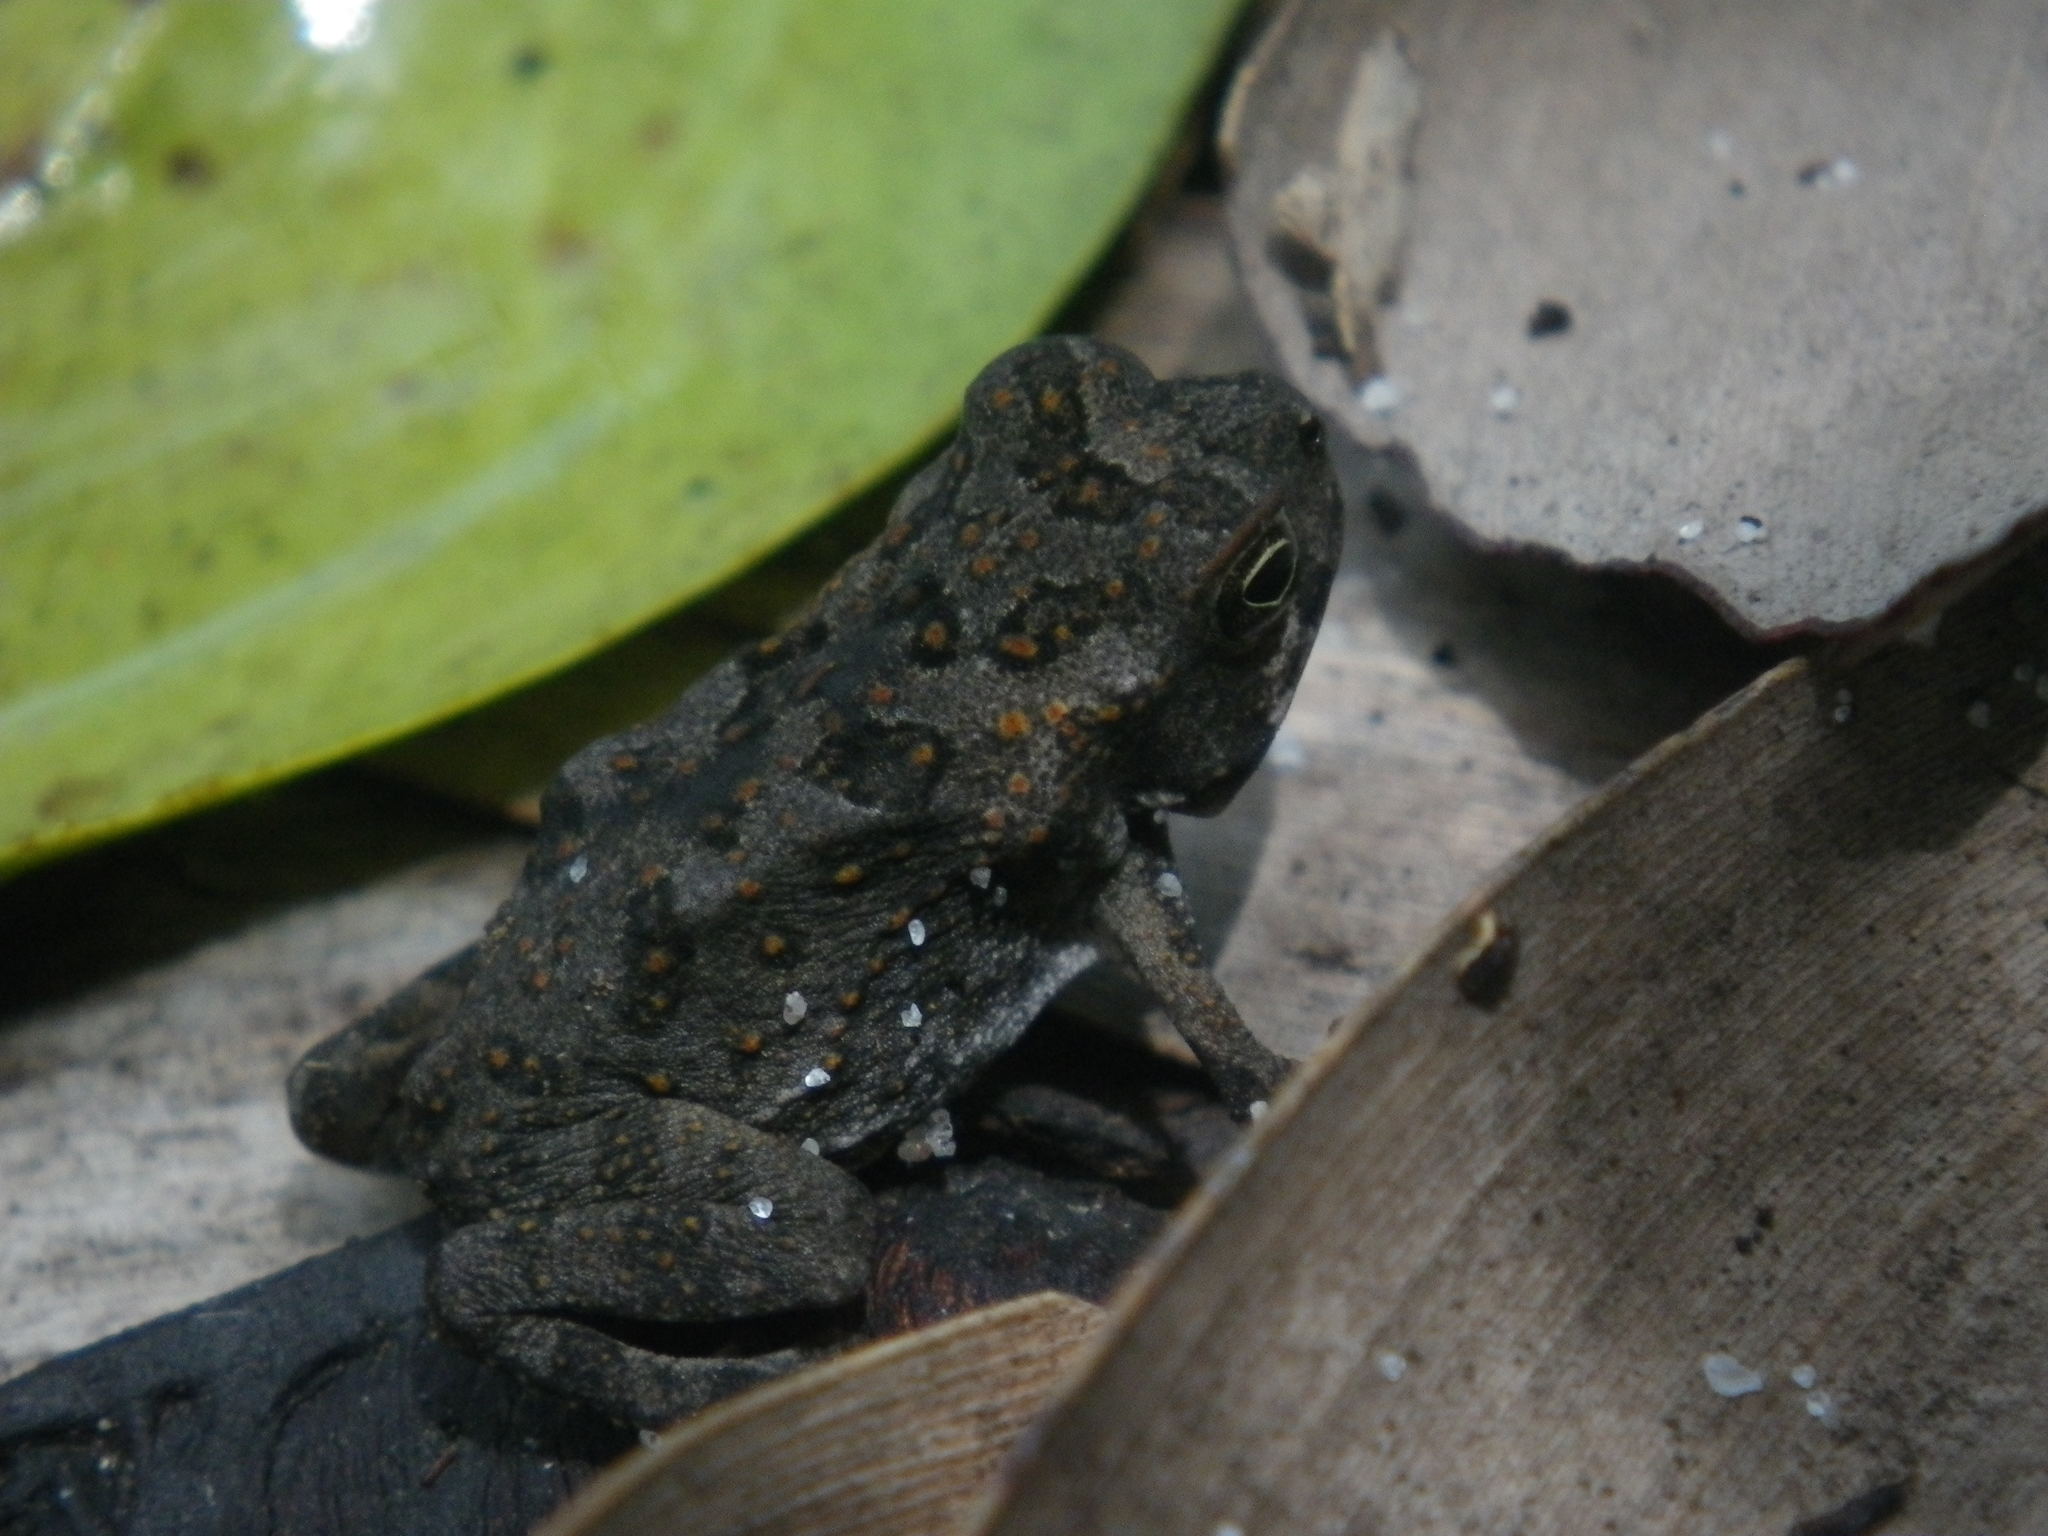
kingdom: Animalia
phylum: Chordata
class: Amphibia
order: Anura
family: Bufonidae
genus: Rhinella
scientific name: Rhinella marina
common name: Cane toad
